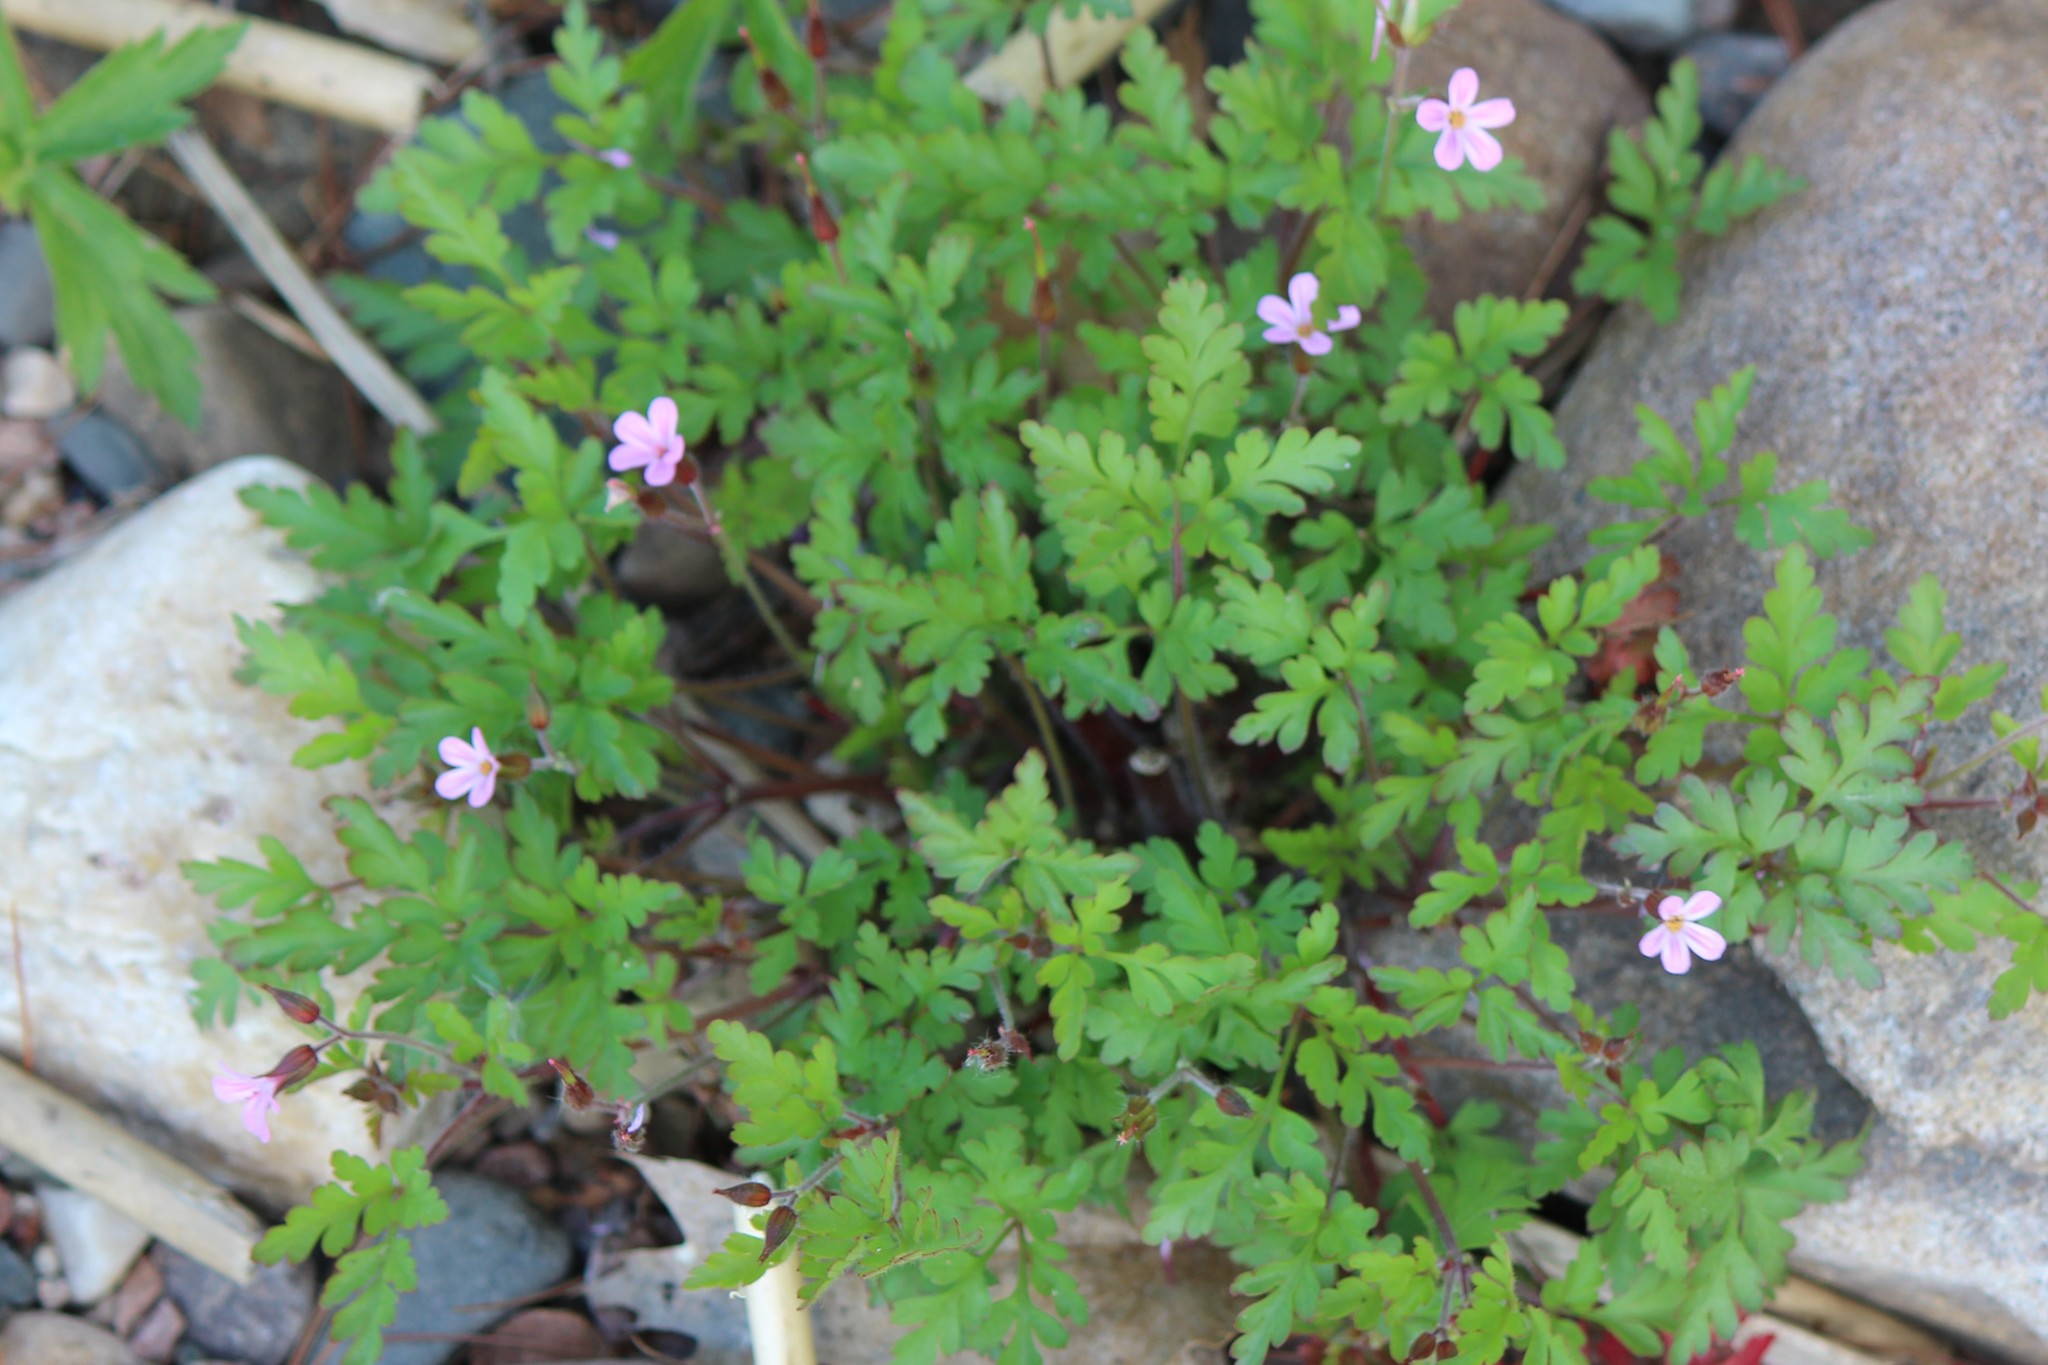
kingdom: Plantae
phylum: Tracheophyta
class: Magnoliopsida
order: Geraniales
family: Geraniaceae
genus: Geranium
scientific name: Geranium robertianum
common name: Herb-robert
